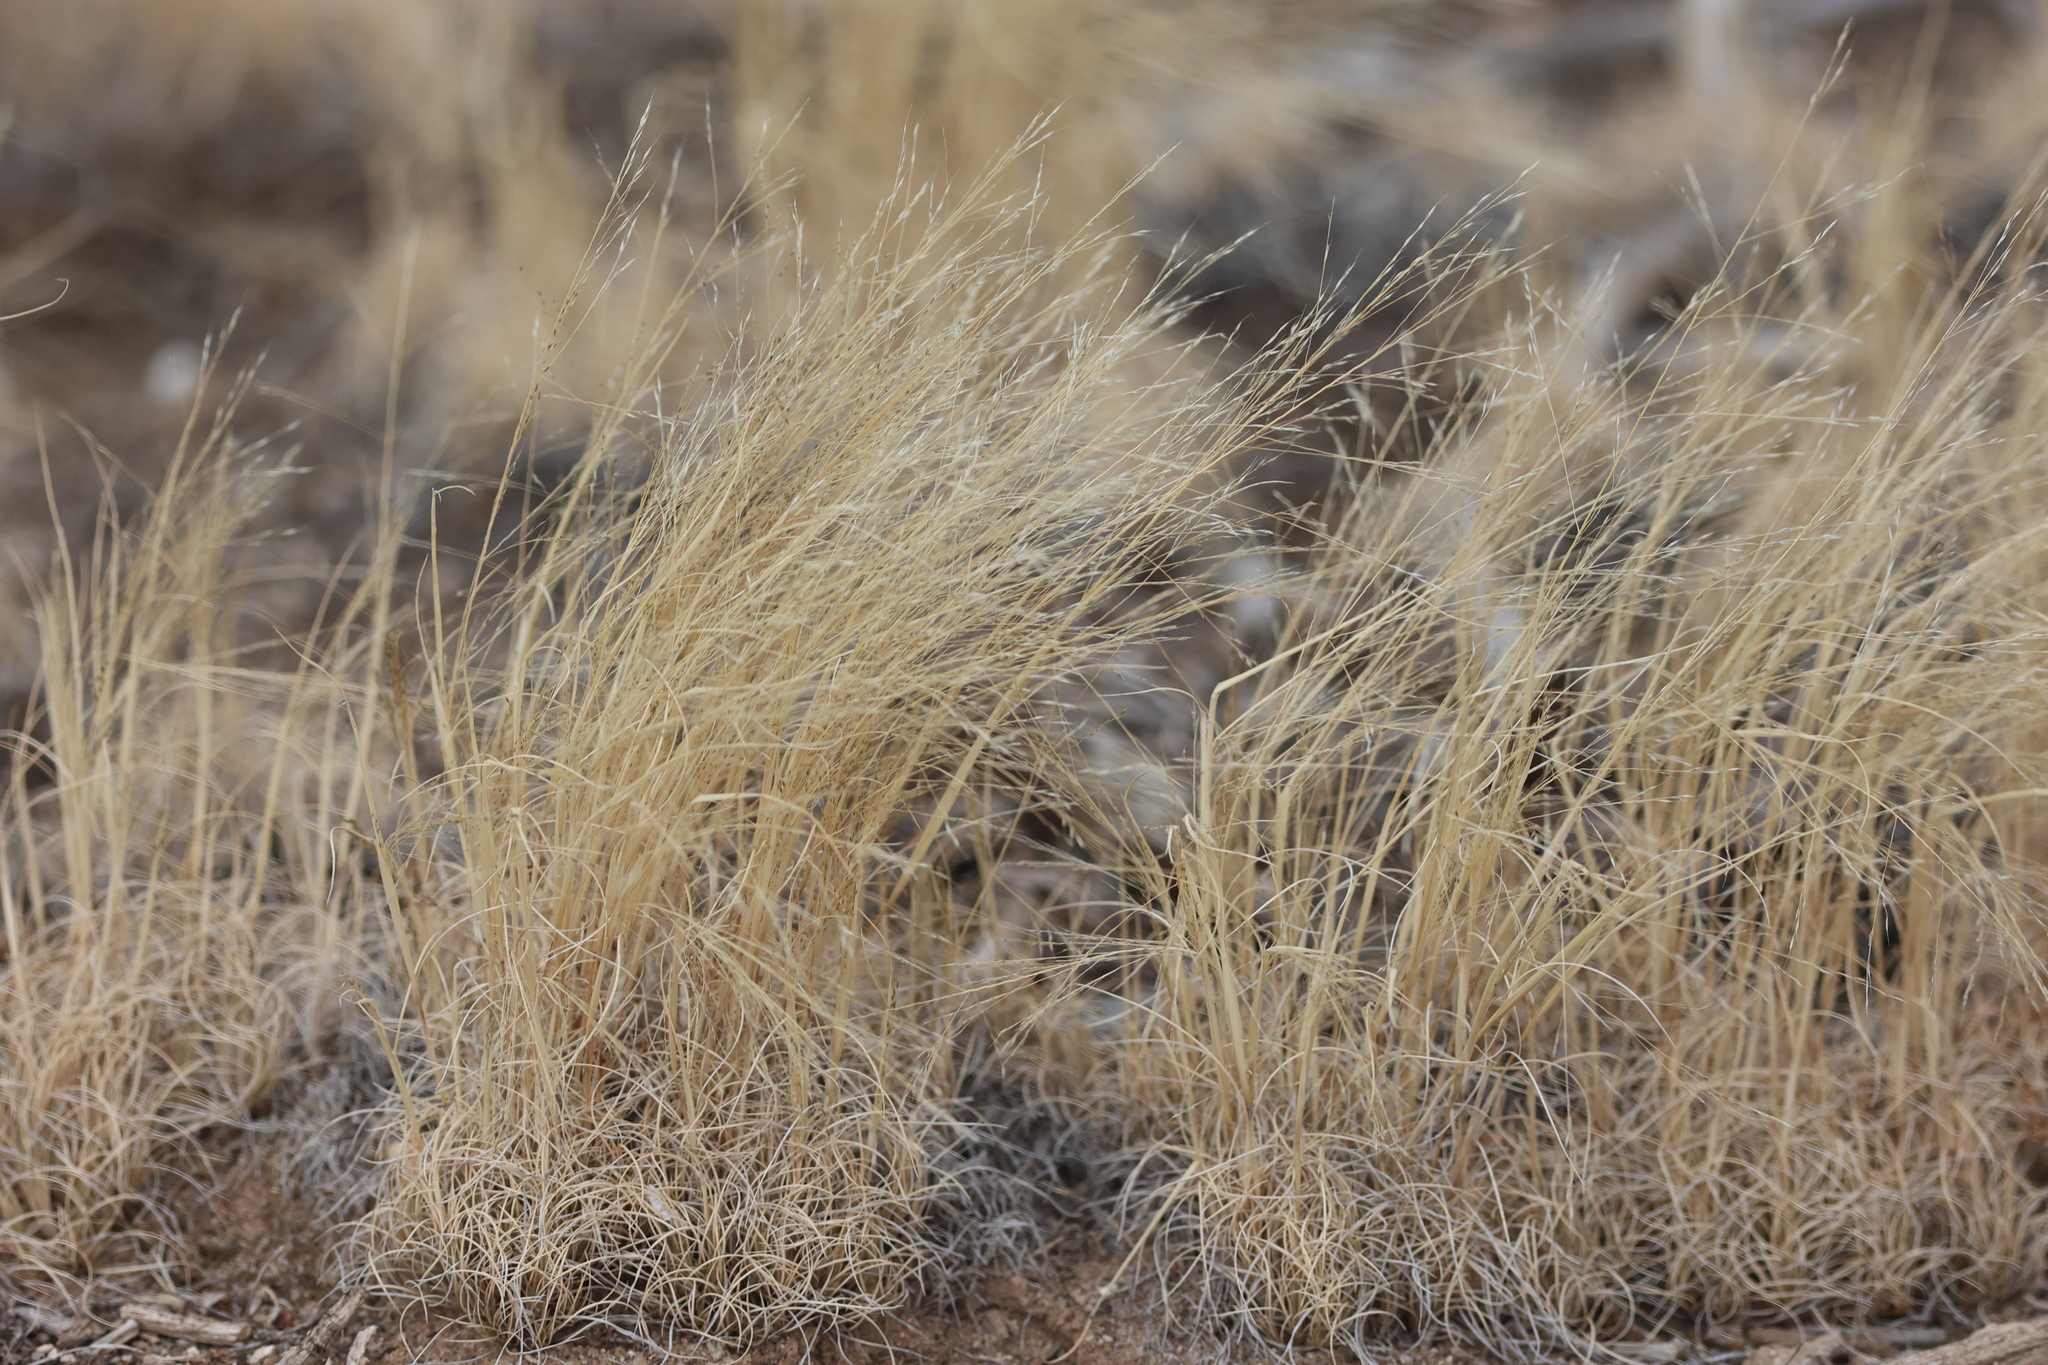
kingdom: Plantae
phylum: Tracheophyta
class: Liliopsida
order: Poales
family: Poaceae
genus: Muhlenbergia
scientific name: Muhlenbergia torreyi
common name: Ring grass
